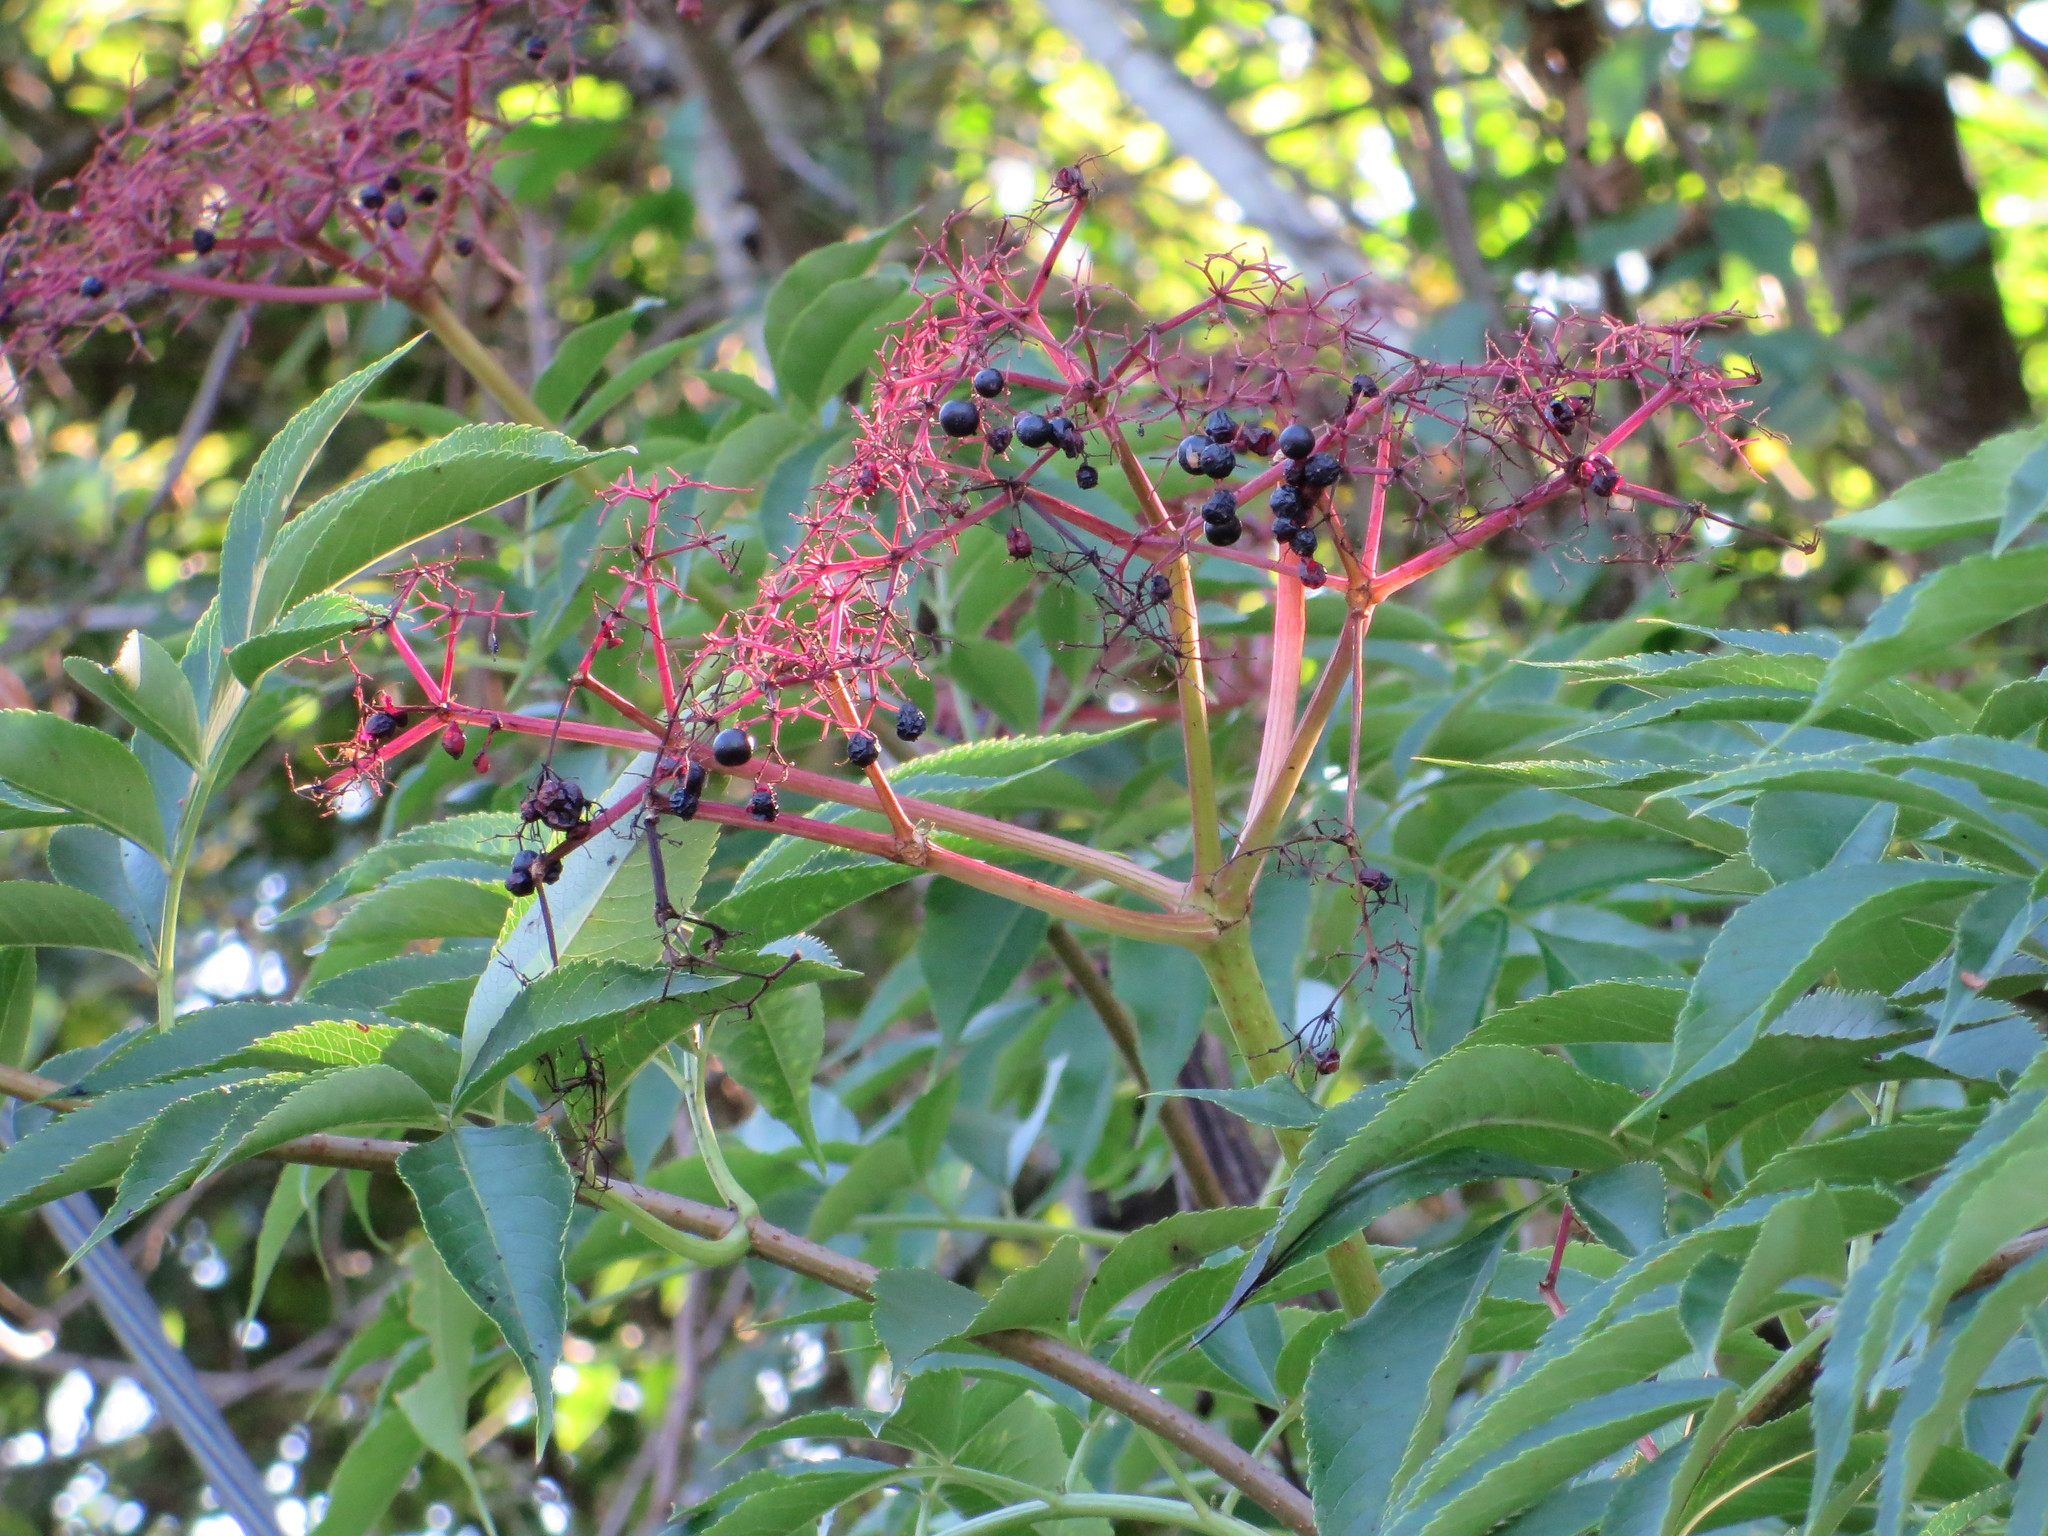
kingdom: Plantae
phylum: Tracheophyta
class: Magnoliopsida
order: Dipsacales
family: Viburnaceae
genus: Sambucus
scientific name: Sambucus canadensis
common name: American elder
